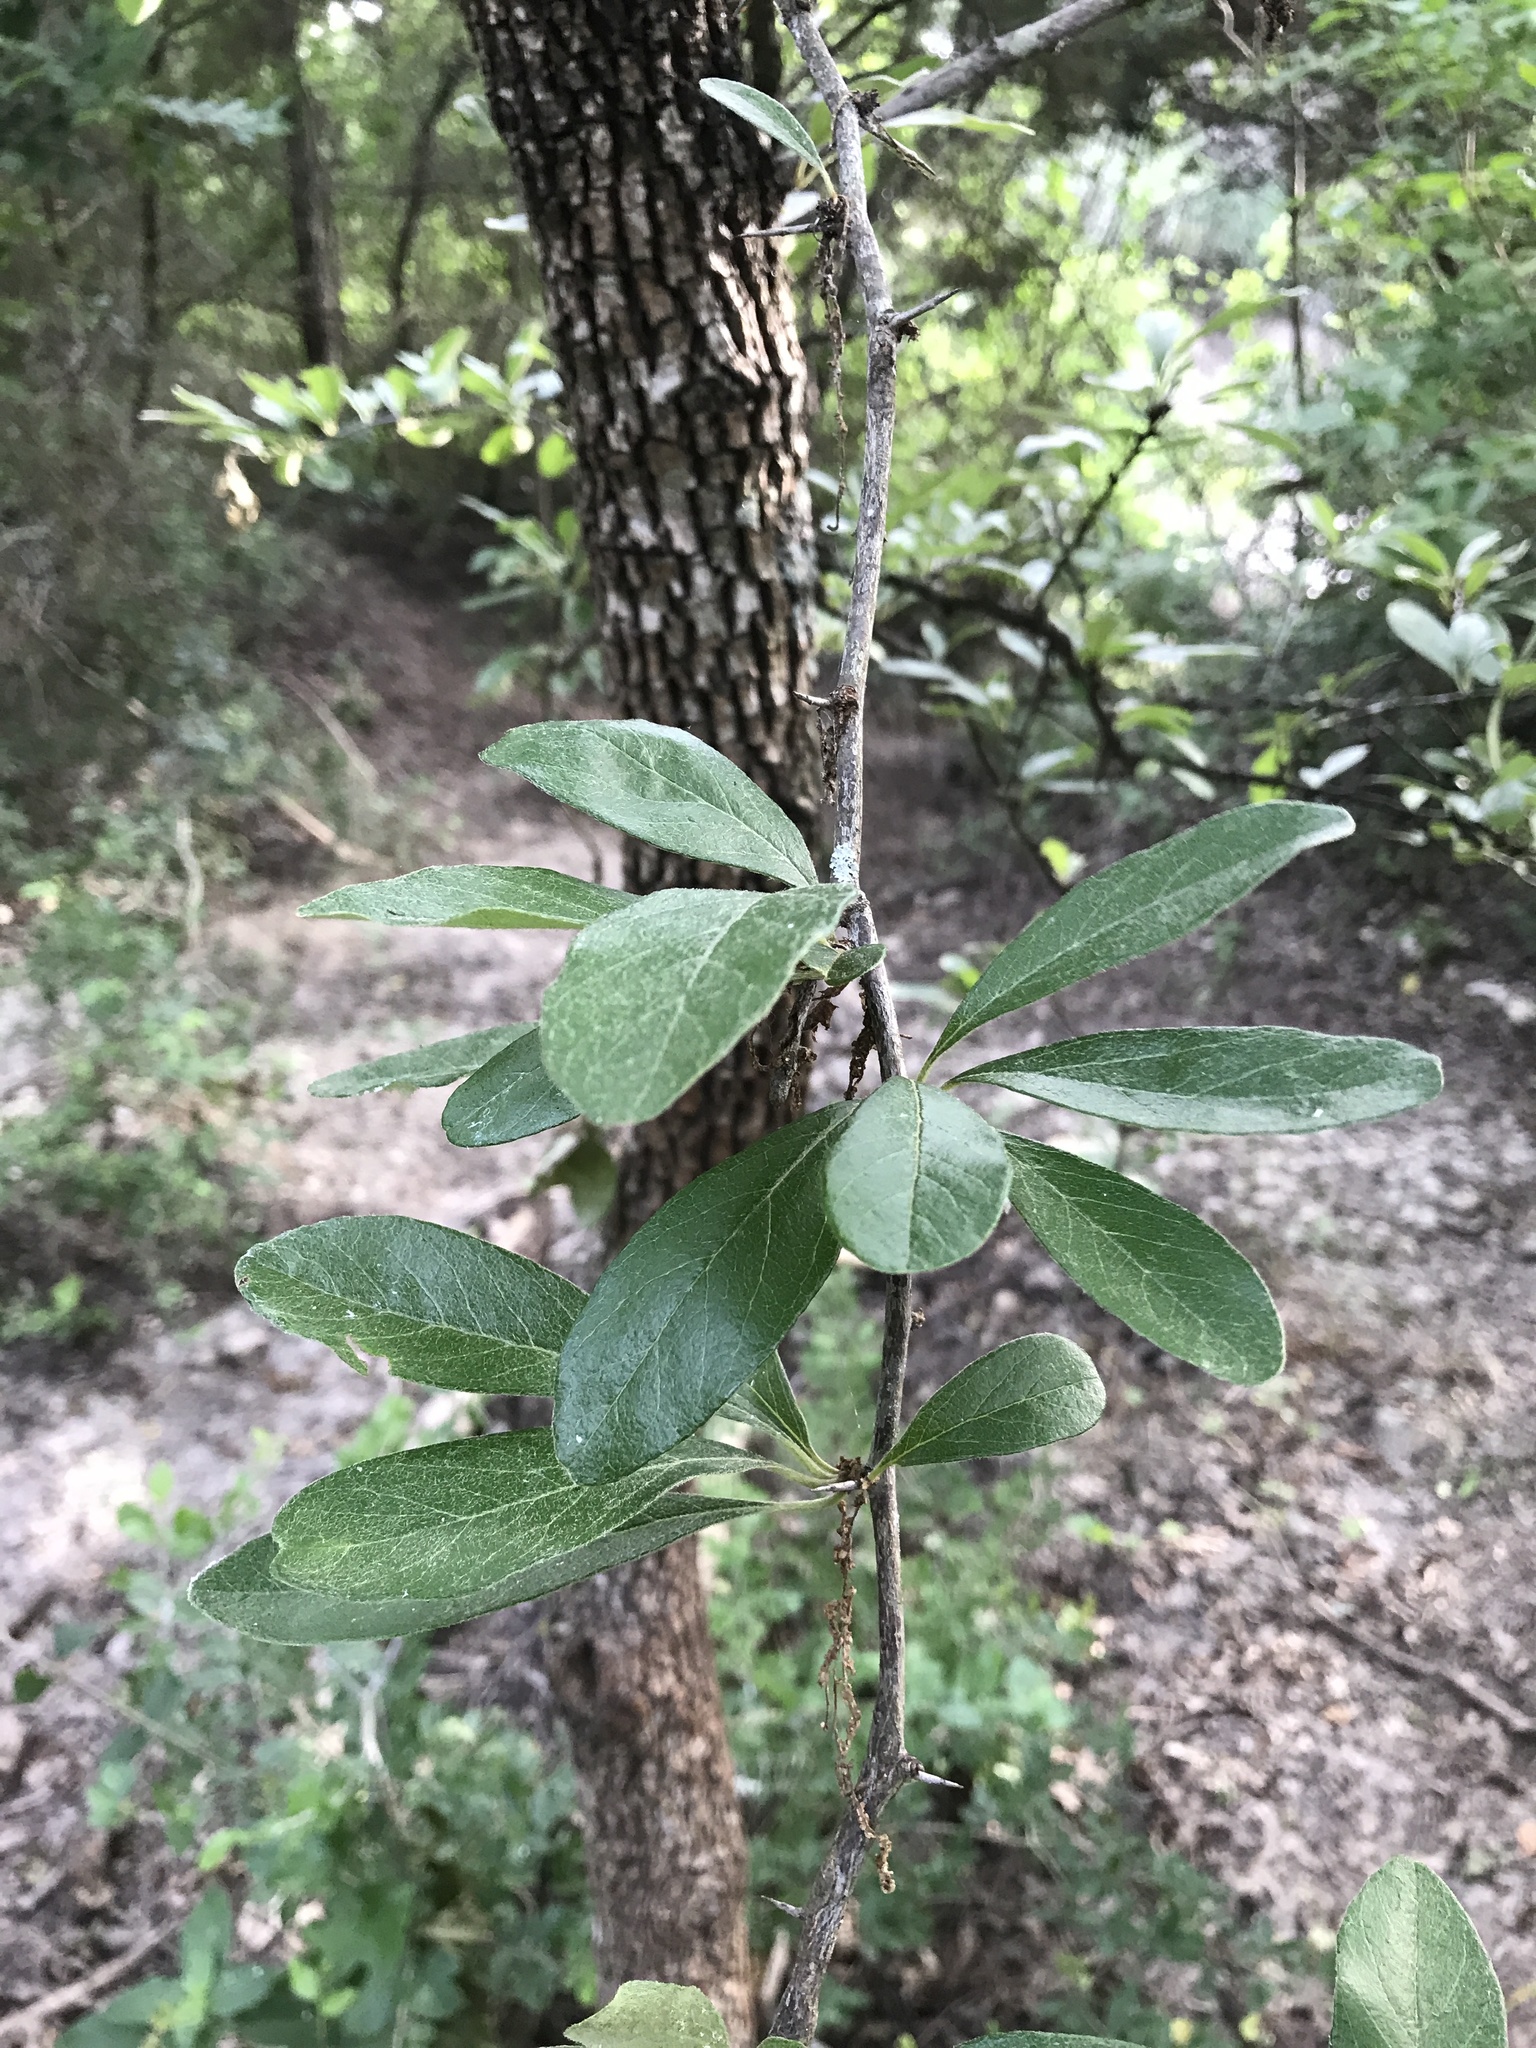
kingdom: Plantae
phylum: Tracheophyta
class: Magnoliopsida
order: Ericales
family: Sapotaceae
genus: Sideroxylon
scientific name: Sideroxylon lanuginosum
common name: Chittamwood
